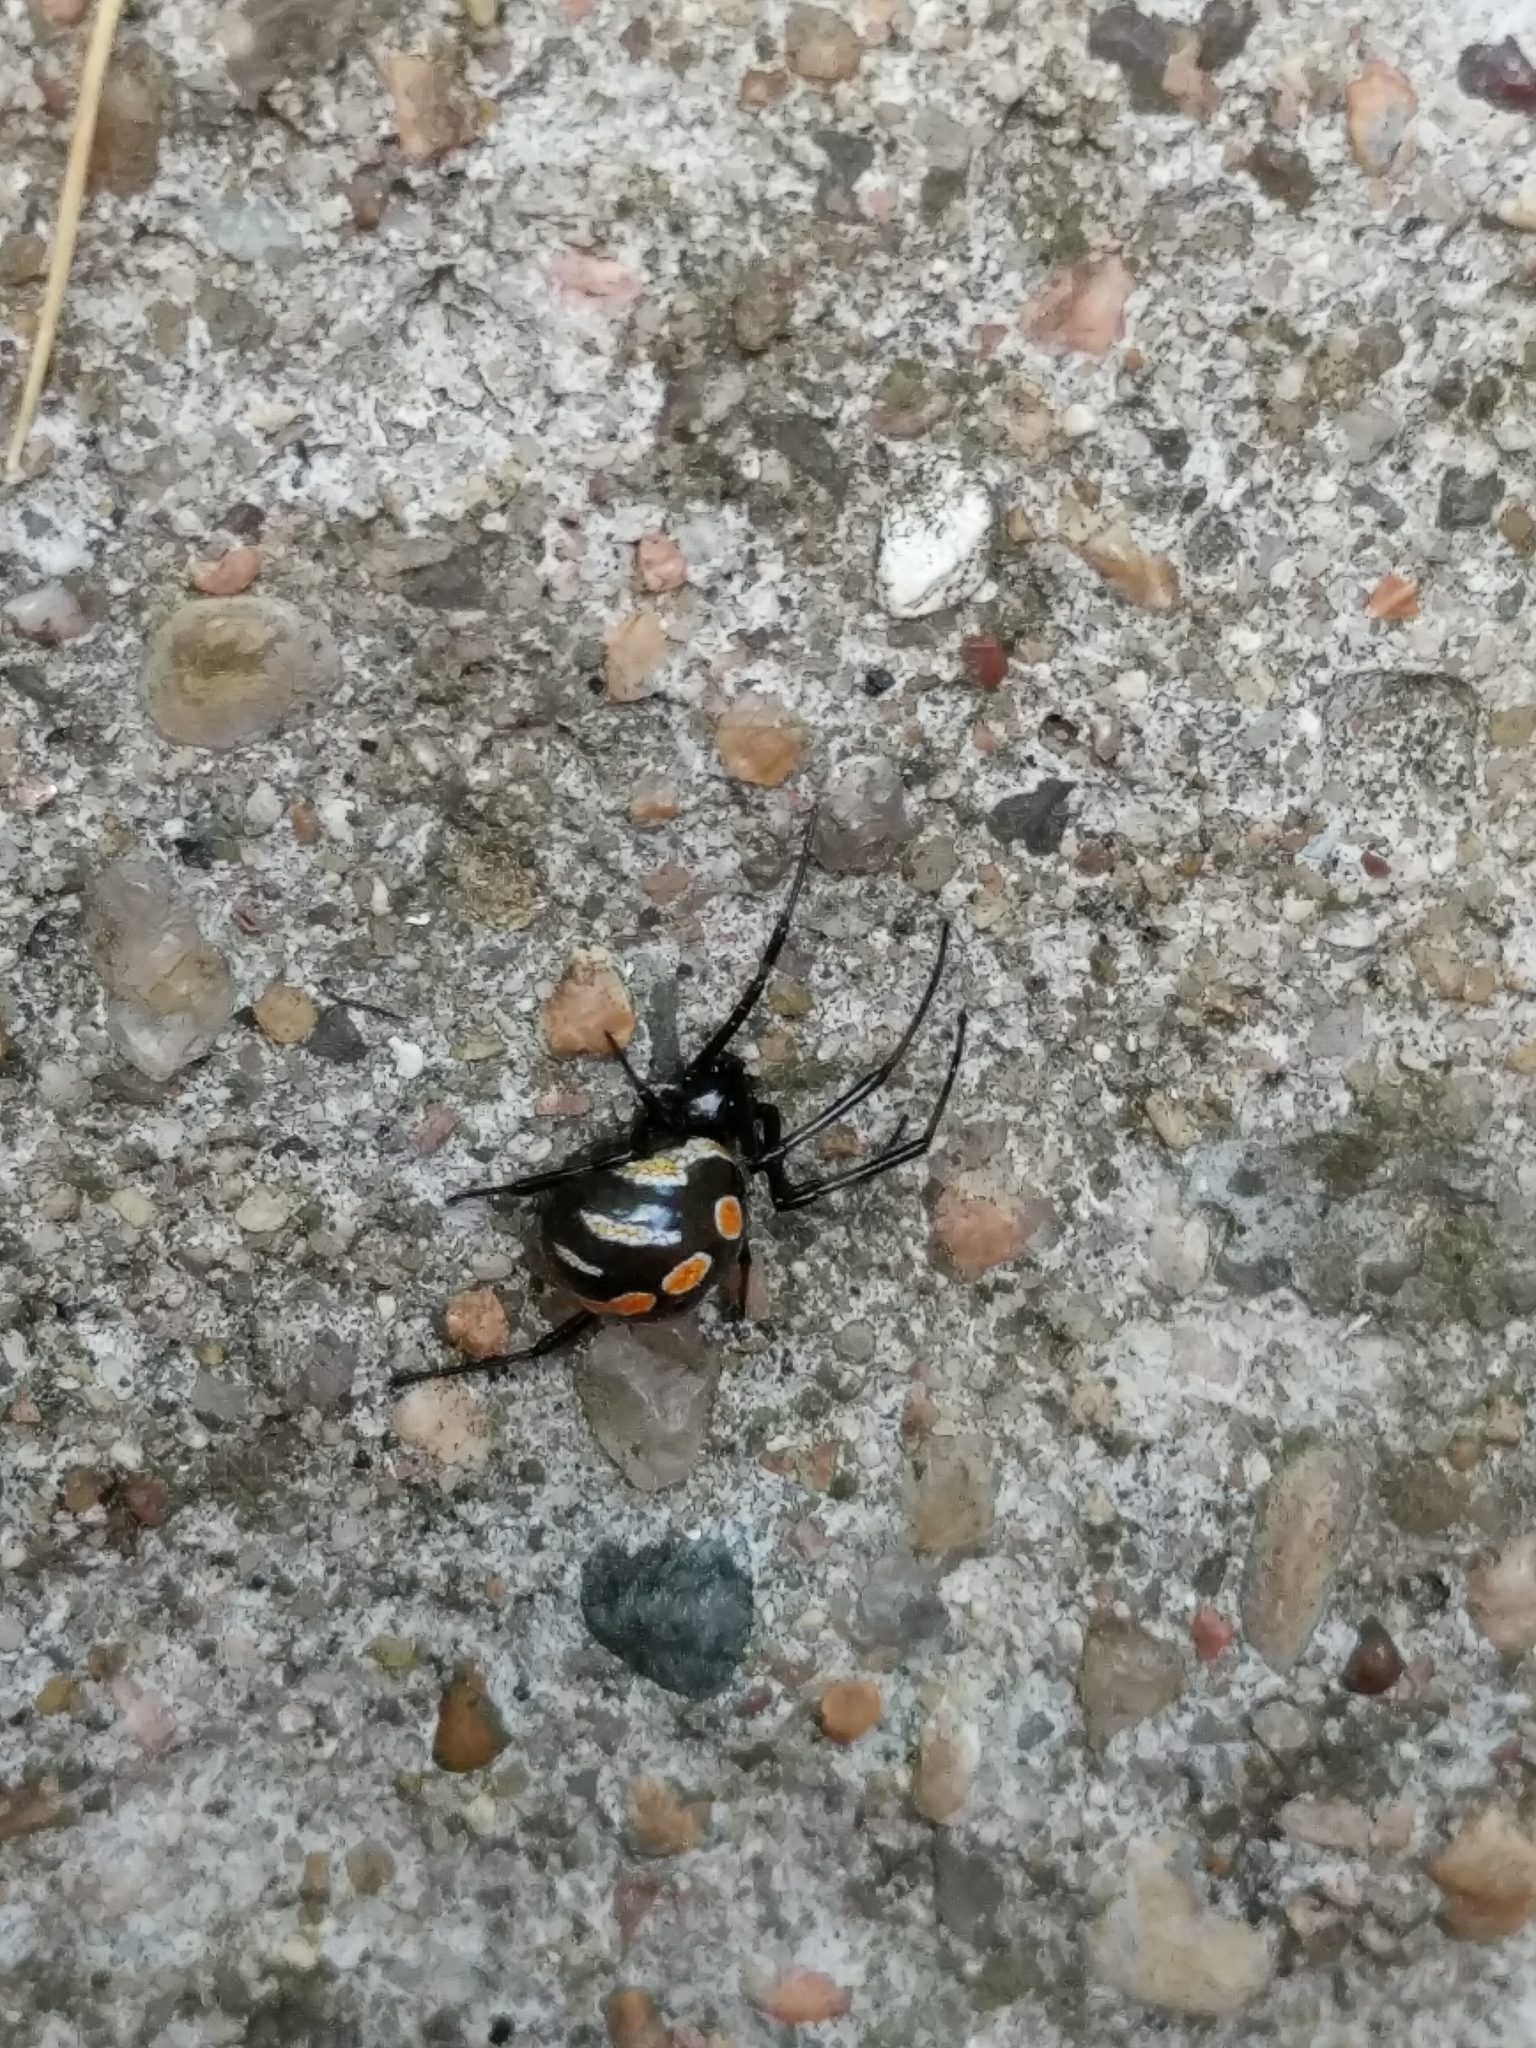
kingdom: Animalia
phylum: Arthropoda
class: Arachnida
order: Araneae
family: Theridiidae
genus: Latrodectus
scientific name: Latrodectus mactans
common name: Cobweb spiders
